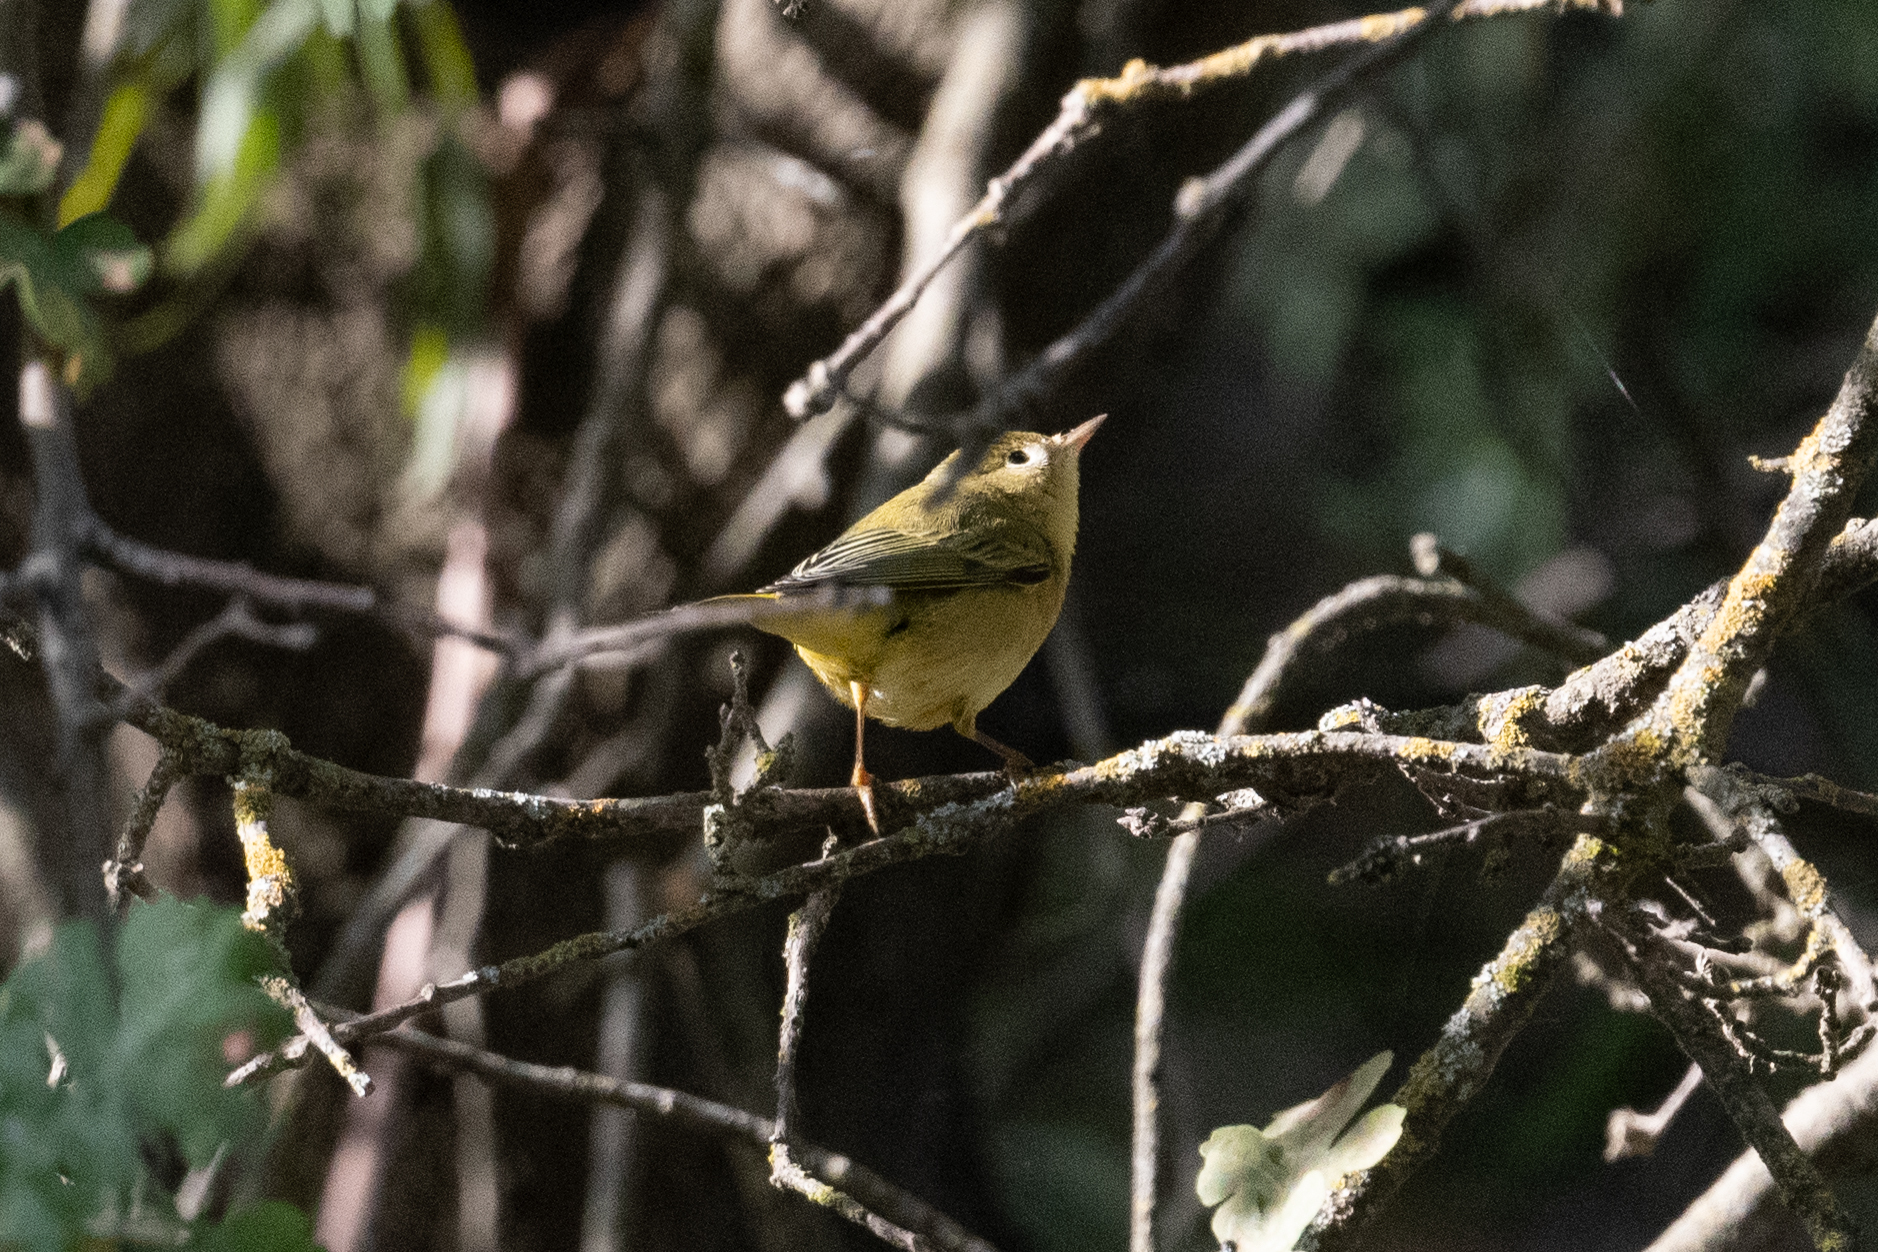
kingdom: Animalia
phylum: Chordata
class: Aves
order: Passeriformes
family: Parulidae
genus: Setophaga
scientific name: Setophaga petechia
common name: Yellow warbler
